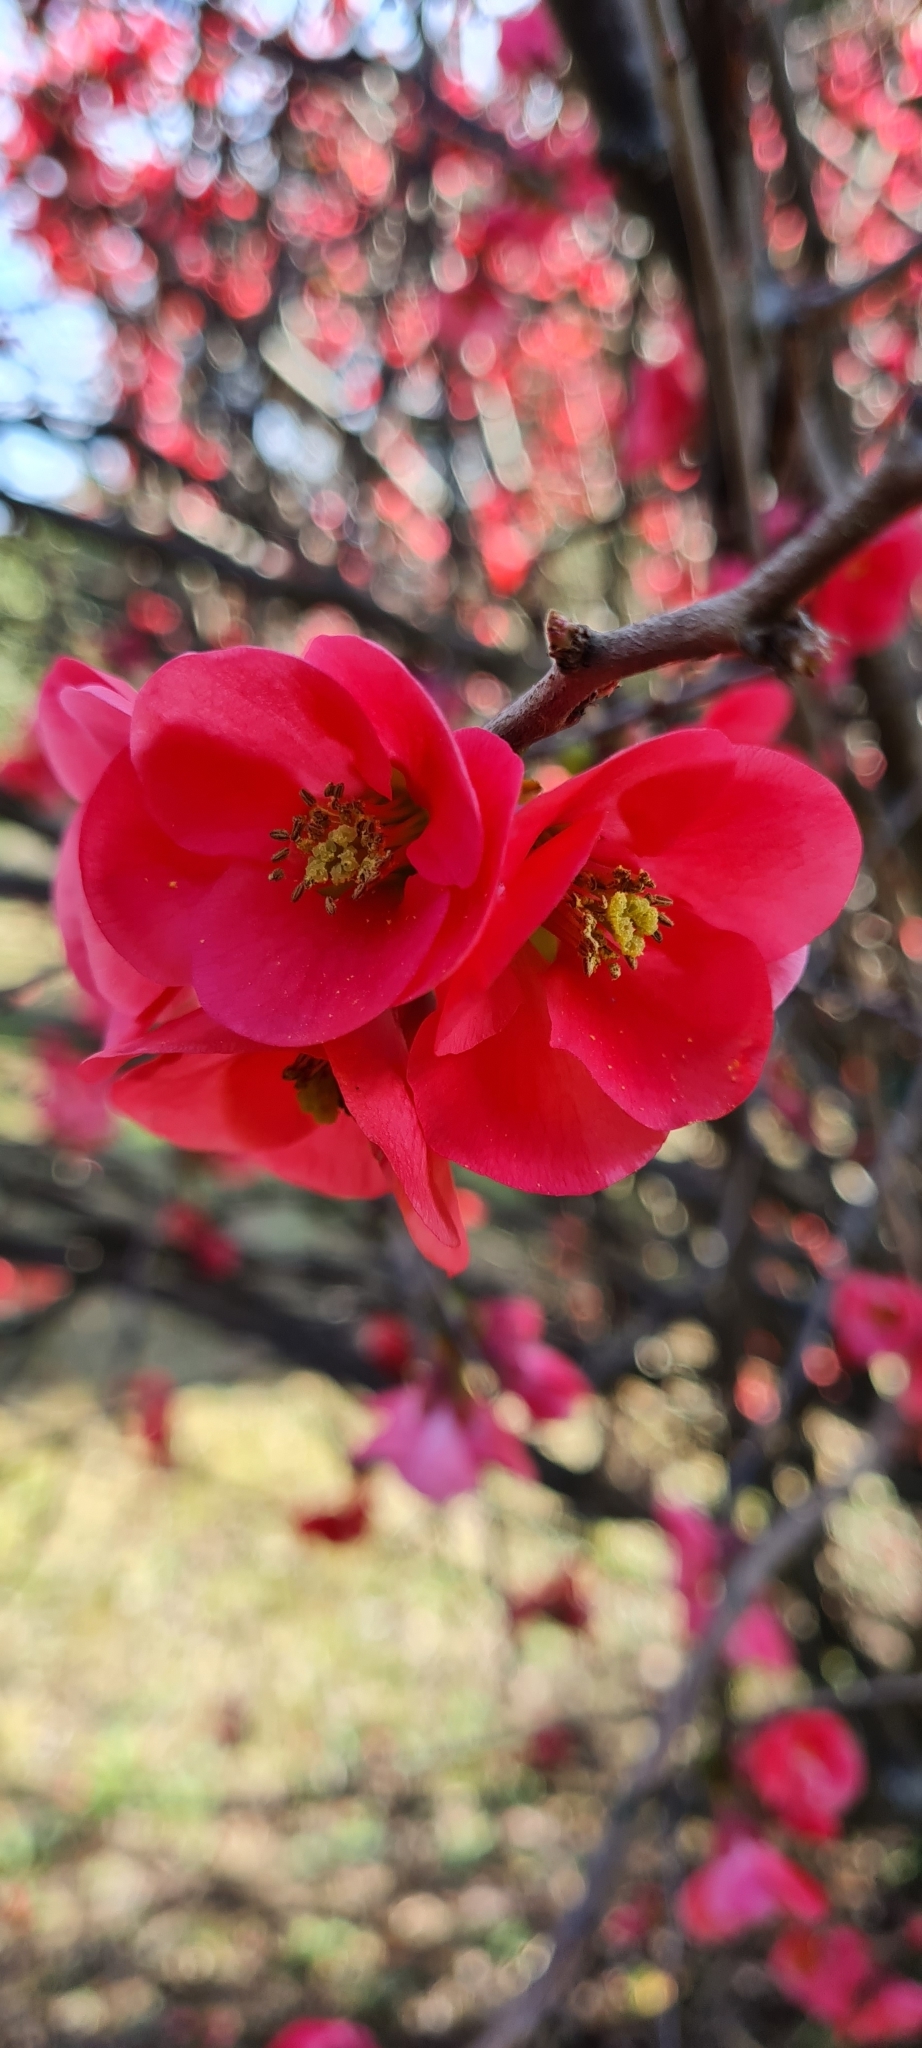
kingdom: Plantae
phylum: Tracheophyta
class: Magnoliopsida
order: Rosales
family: Rosaceae
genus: Chaenomeles
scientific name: Chaenomeles speciosa
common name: Japanese quince
